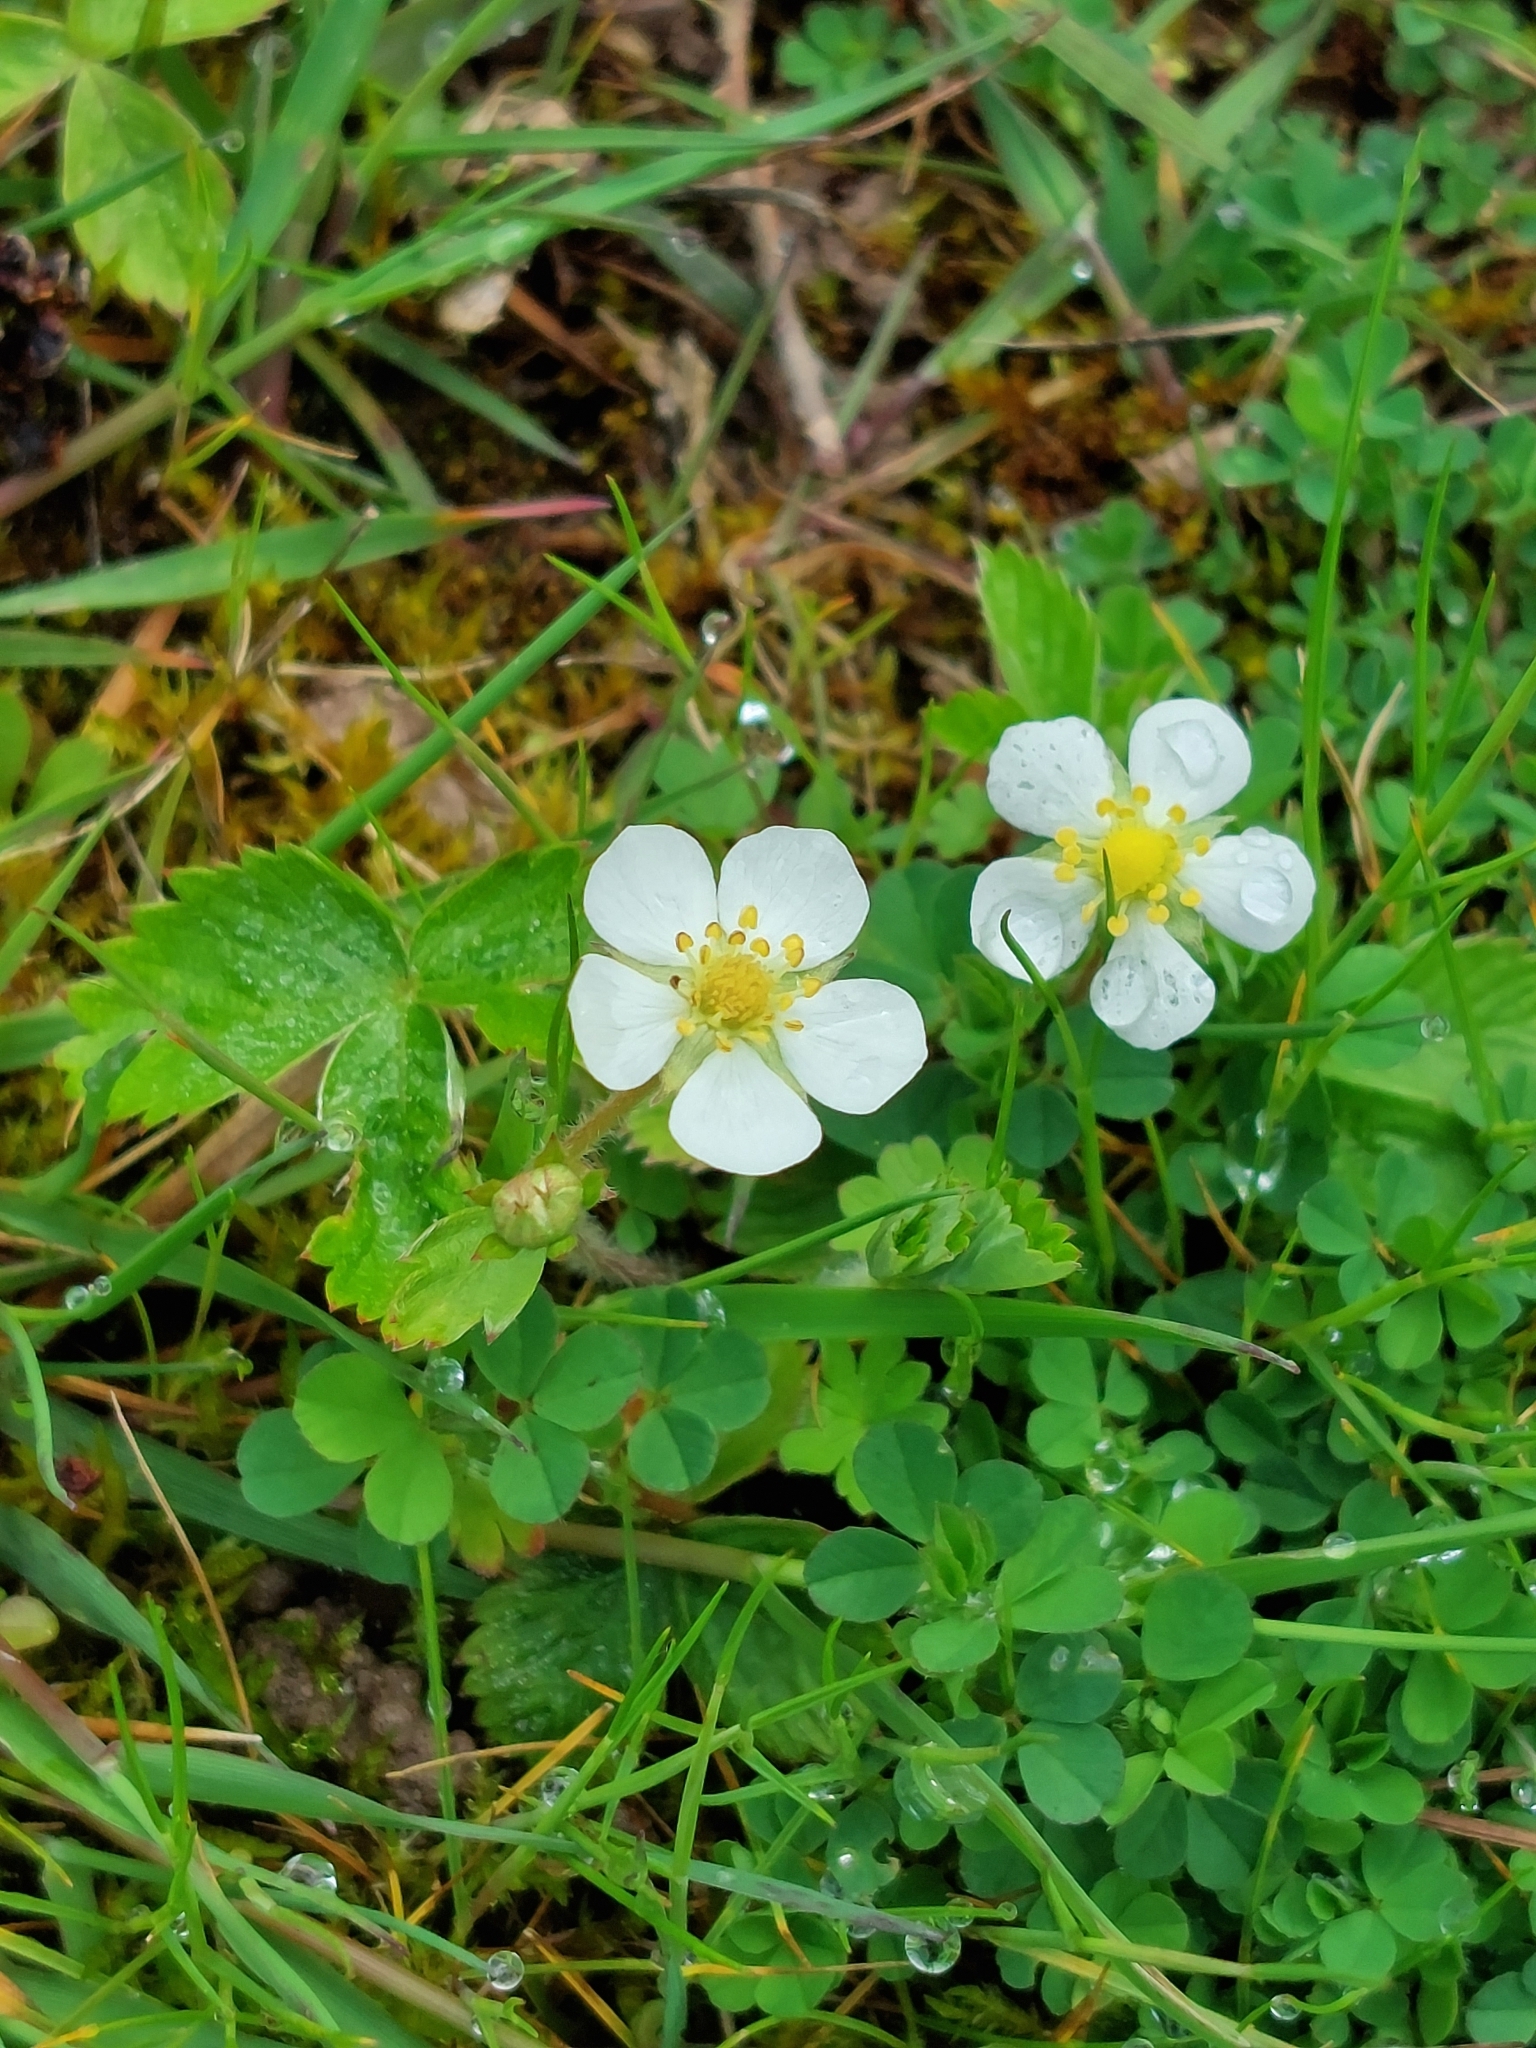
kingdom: Plantae
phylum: Tracheophyta
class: Magnoliopsida
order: Rosales
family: Rosaceae
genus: Fragaria
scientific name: Fragaria vesca
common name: Wild strawberry
